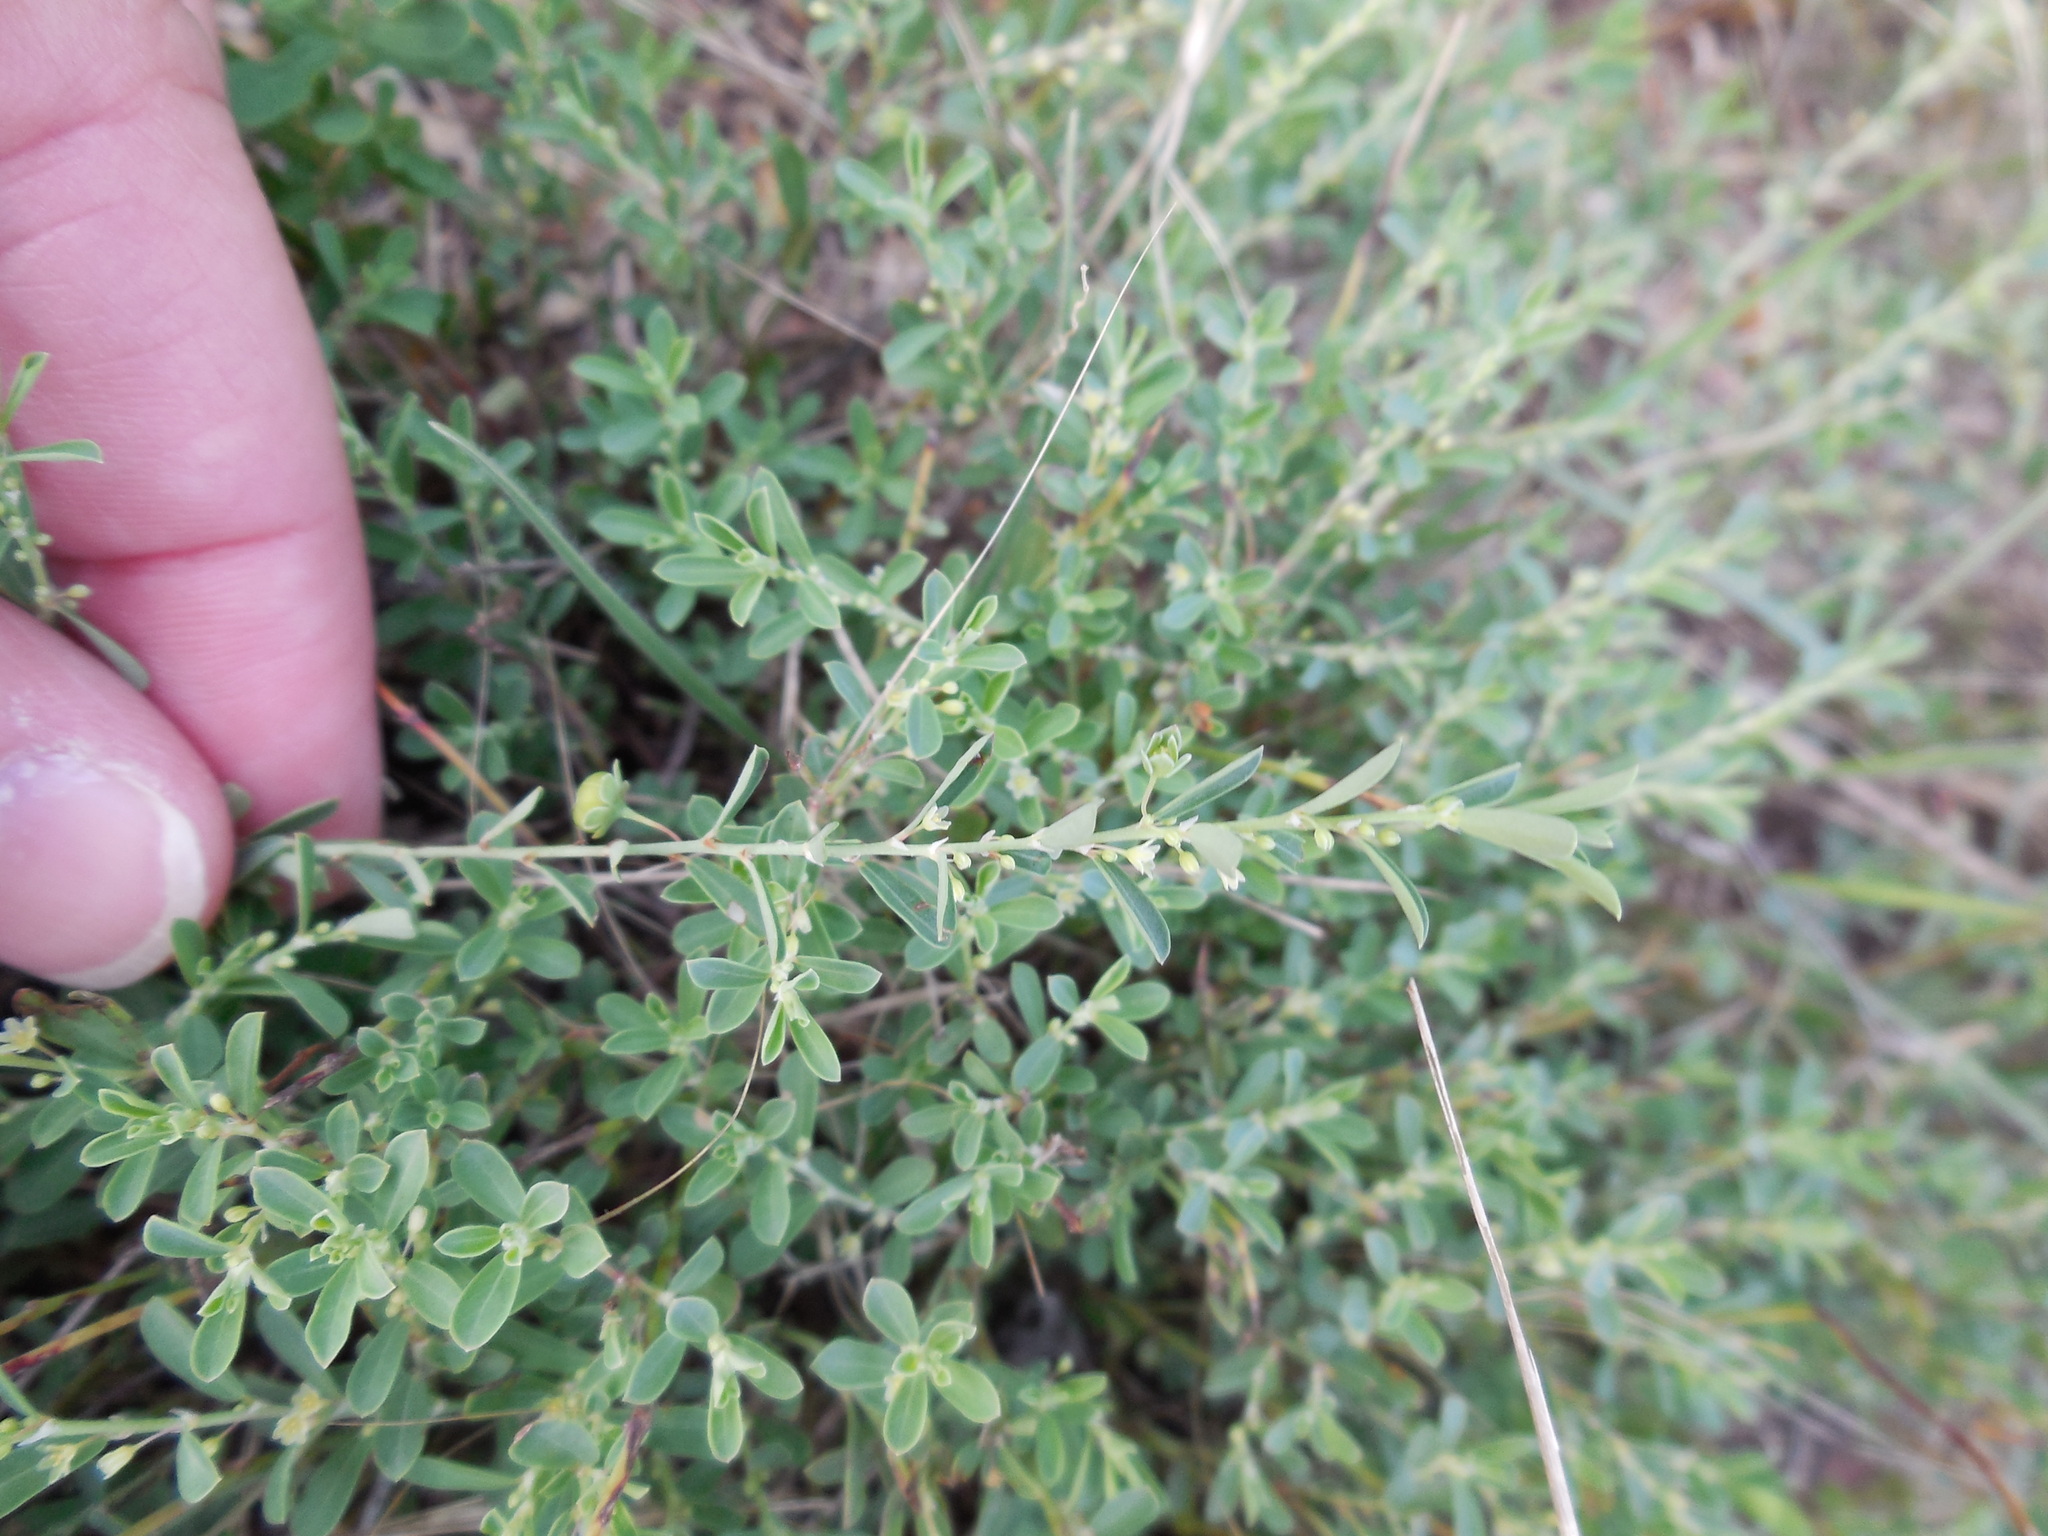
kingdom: Plantae
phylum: Tracheophyta
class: Magnoliopsida
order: Malpighiales
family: Phyllanthaceae
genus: Phyllanthus
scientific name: Phyllanthus polygonoides
